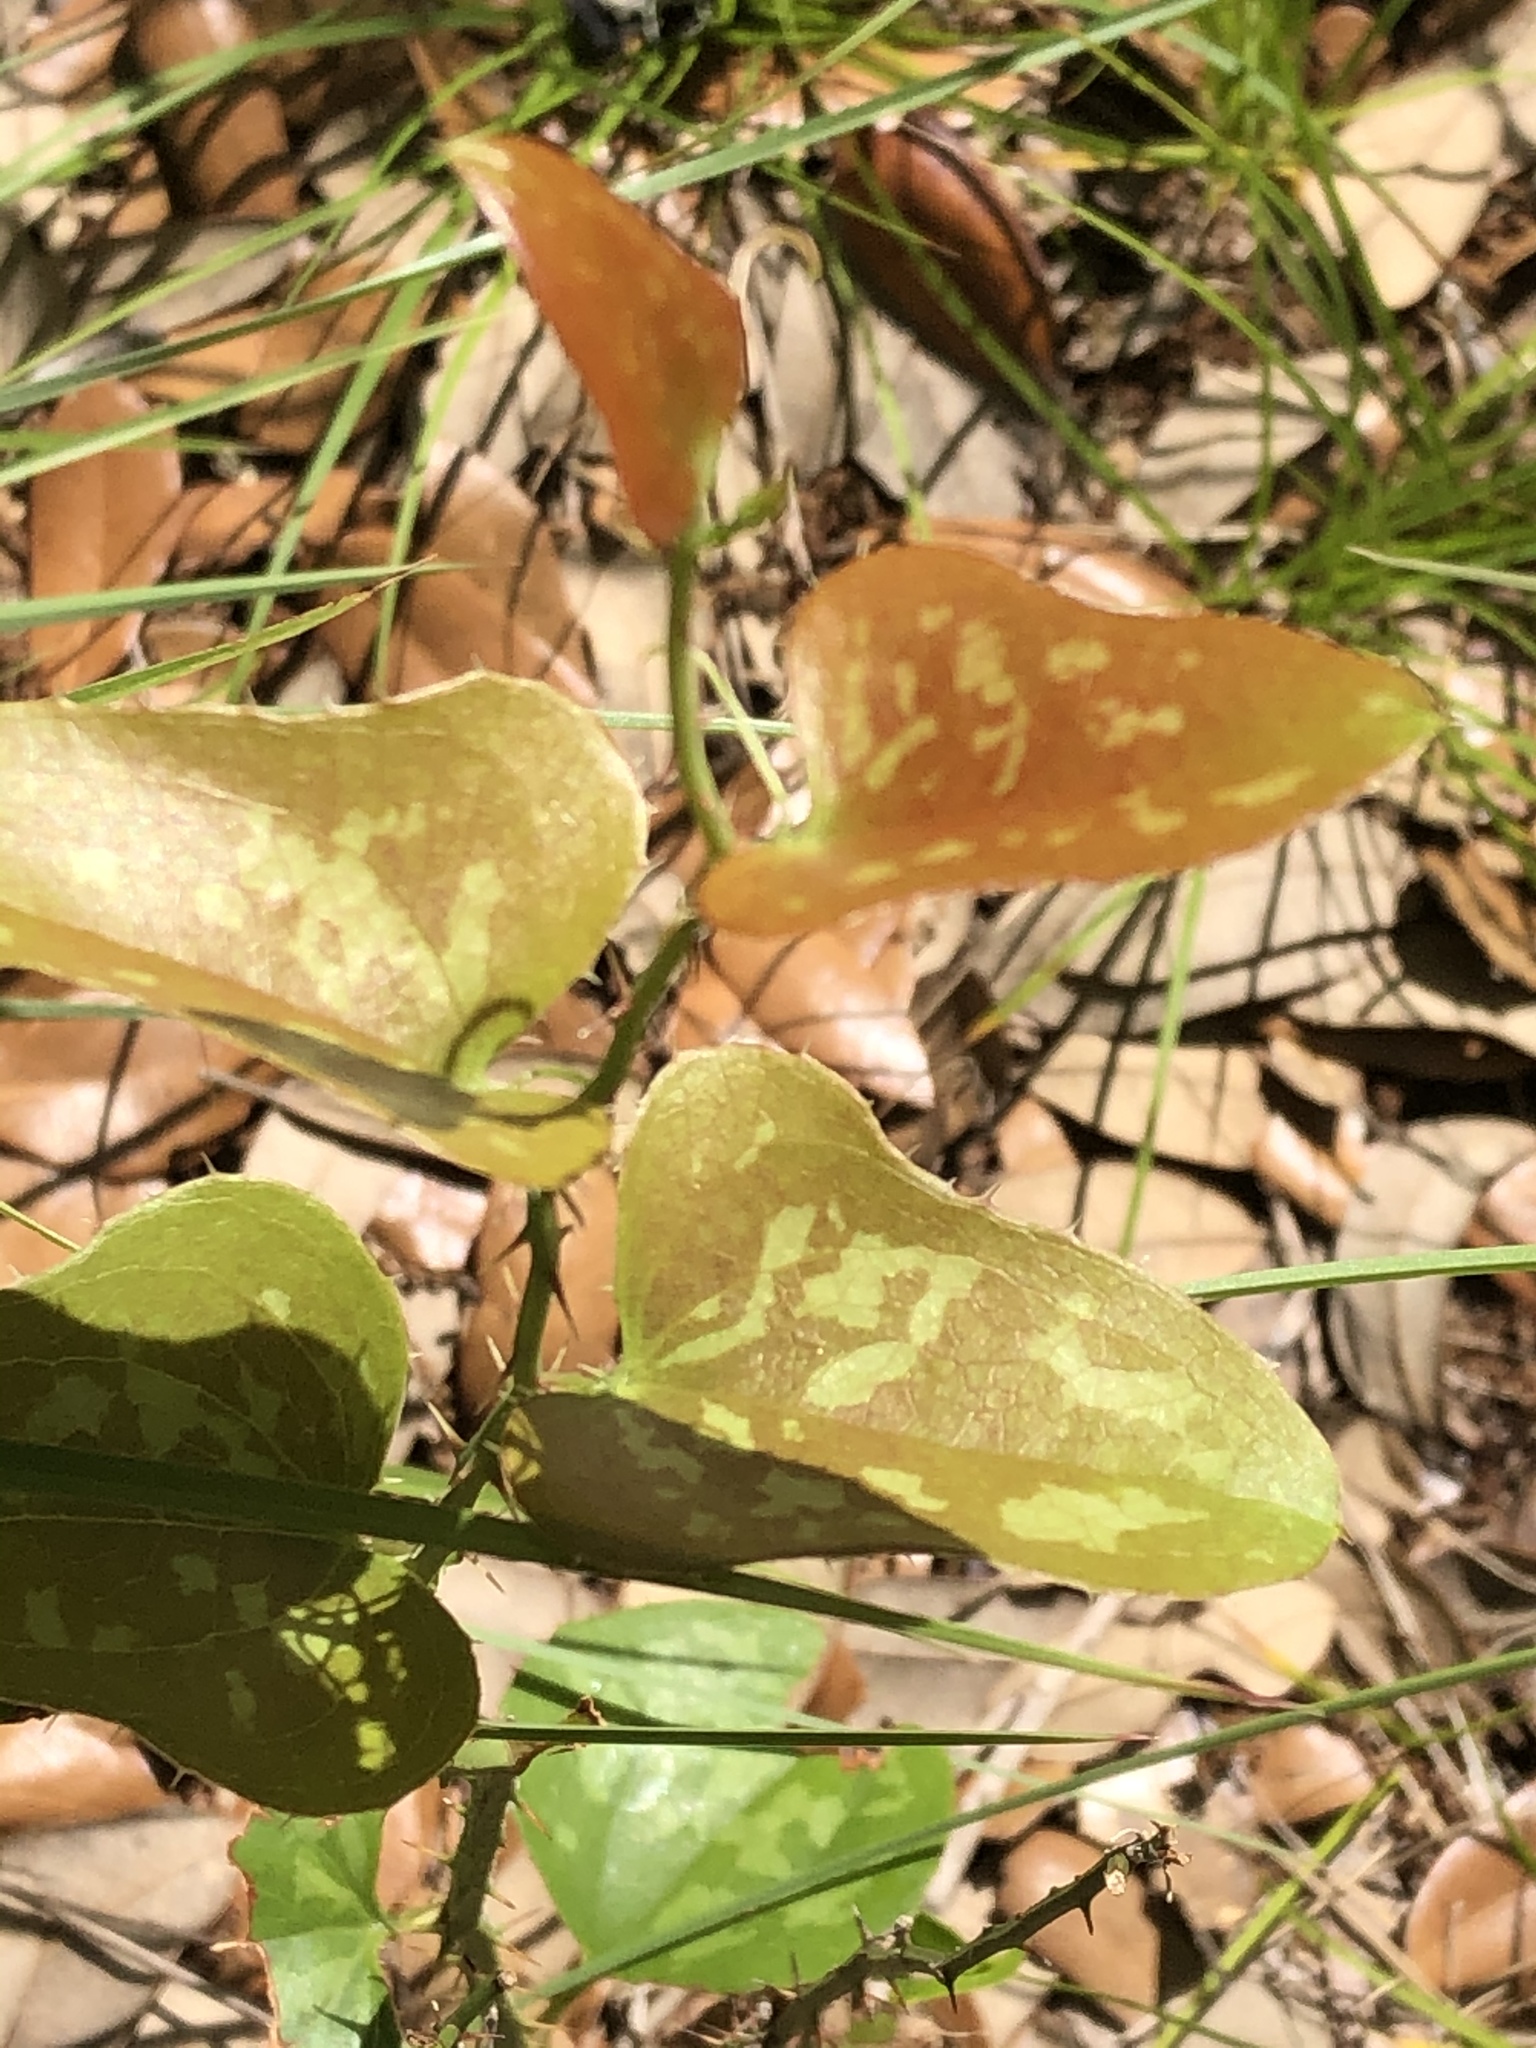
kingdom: Plantae
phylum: Tracheophyta
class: Liliopsida
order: Liliales
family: Smilacaceae
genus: Smilax
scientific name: Smilax bona-nox
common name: Catbrier
